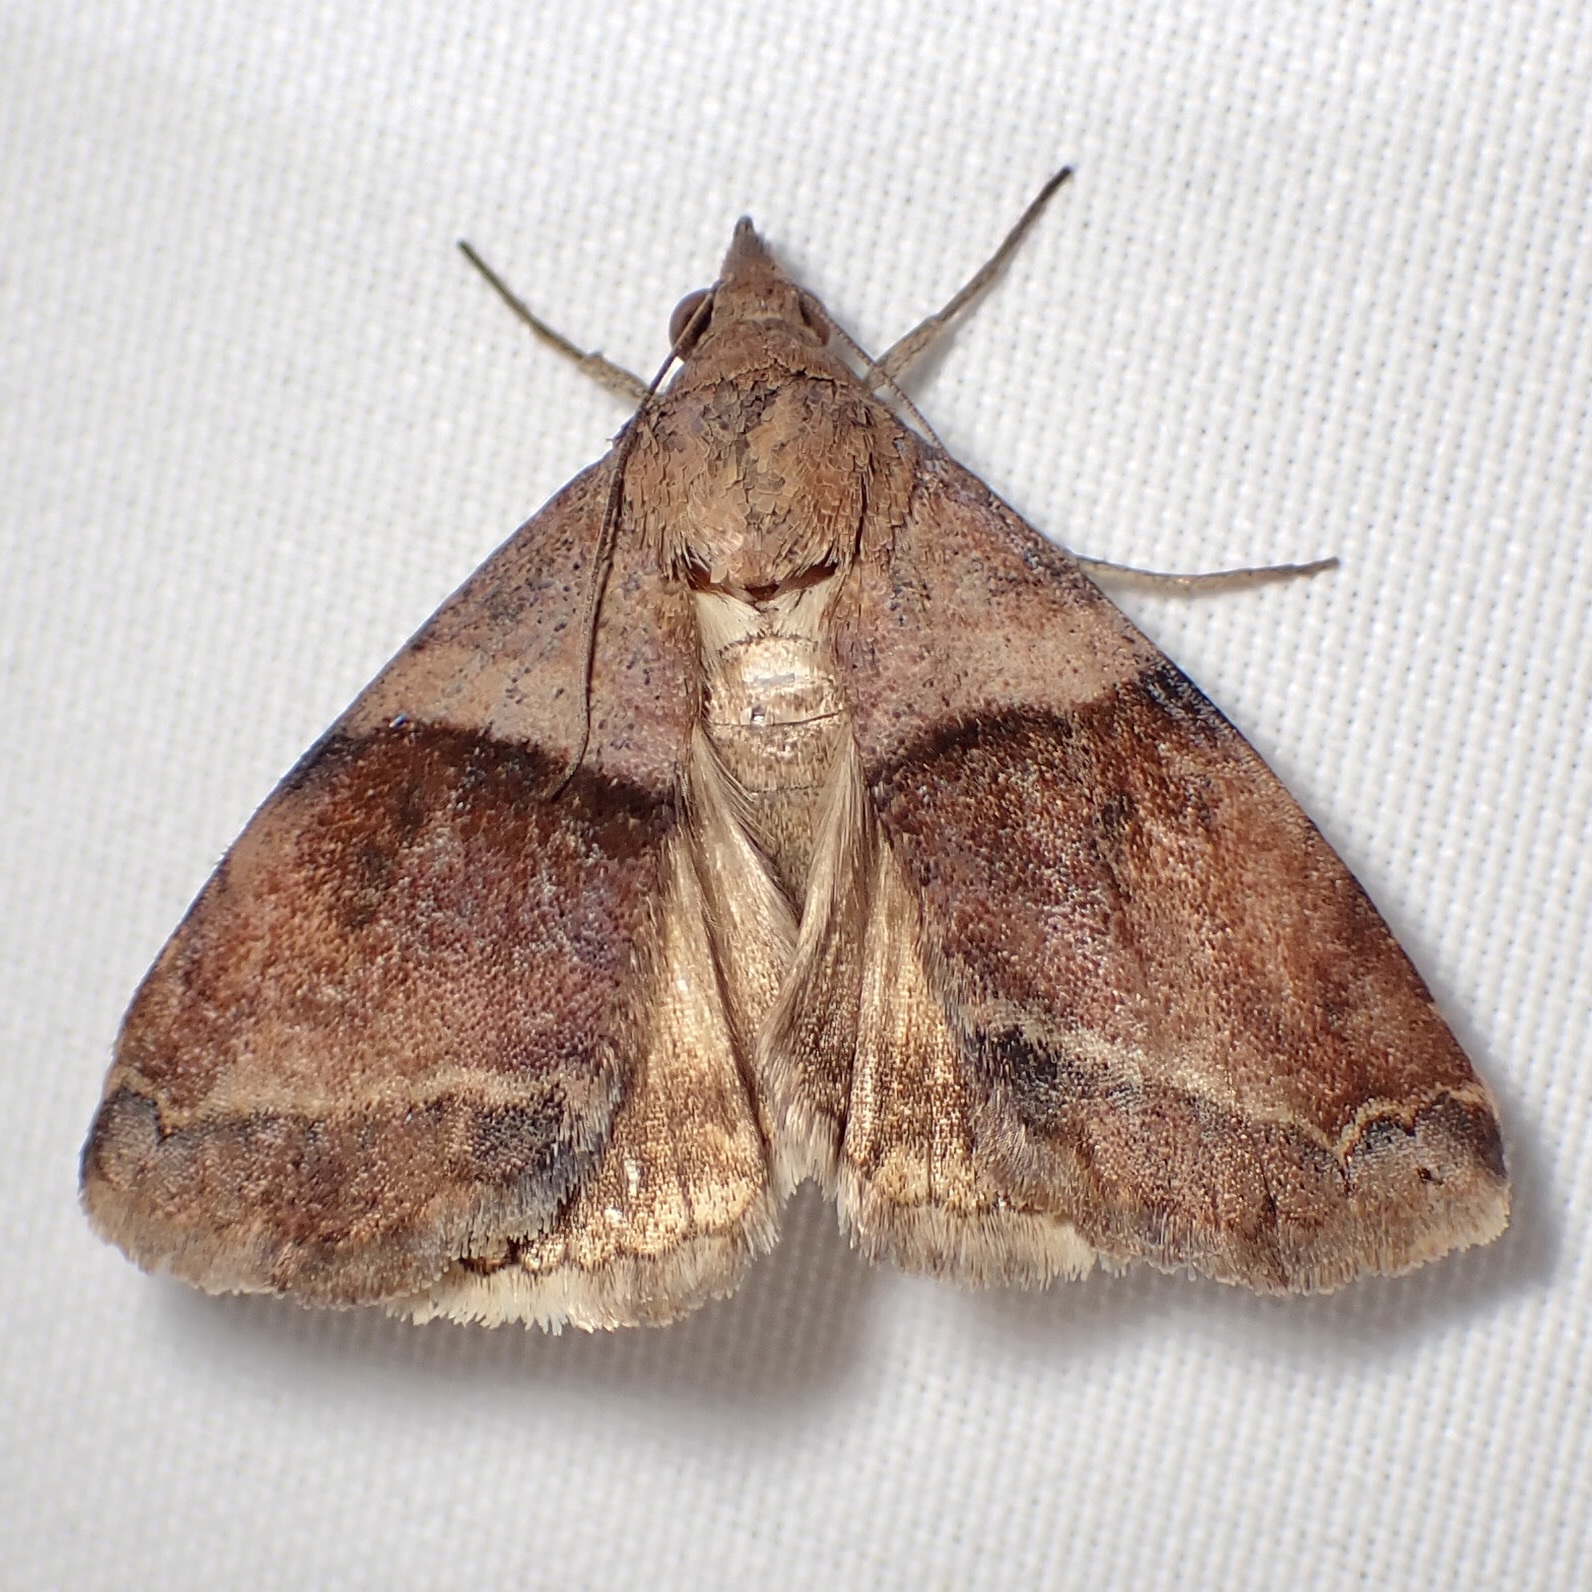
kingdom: Animalia
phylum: Arthropoda
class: Insecta
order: Lepidoptera
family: Erebidae
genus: Panula
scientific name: Panula inconstans
